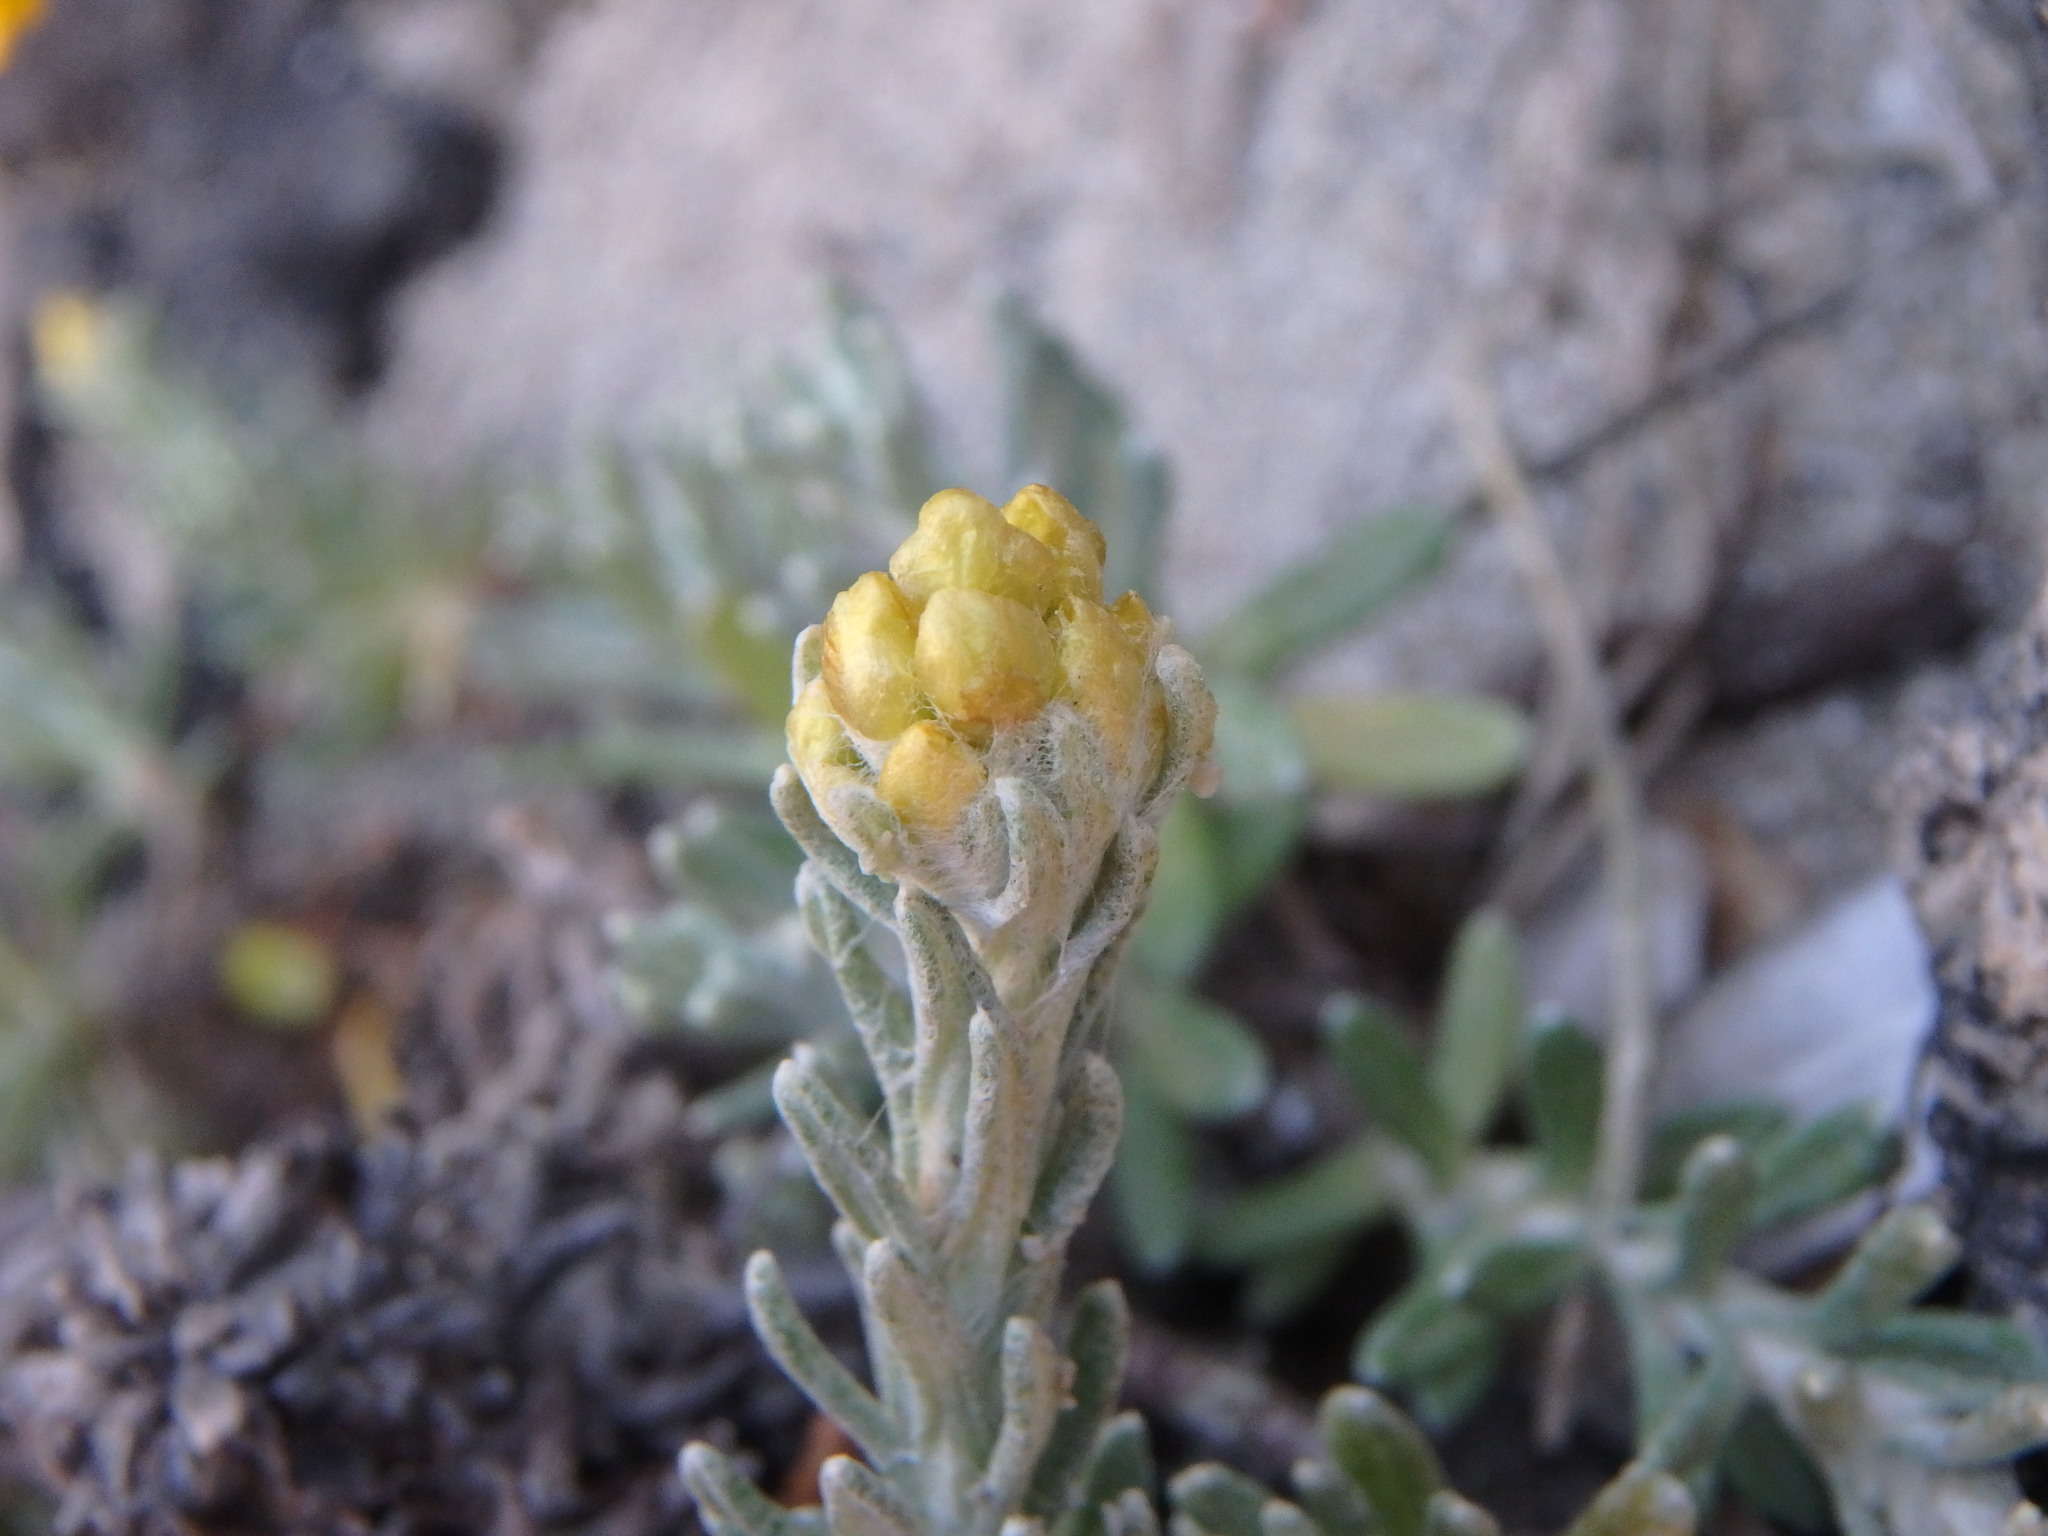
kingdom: Plantae
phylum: Tracheophyta
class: Magnoliopsida
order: Asterales
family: Asteraceae
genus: Helichrysum
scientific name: Helichrysum stoechas
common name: Goldilocks
